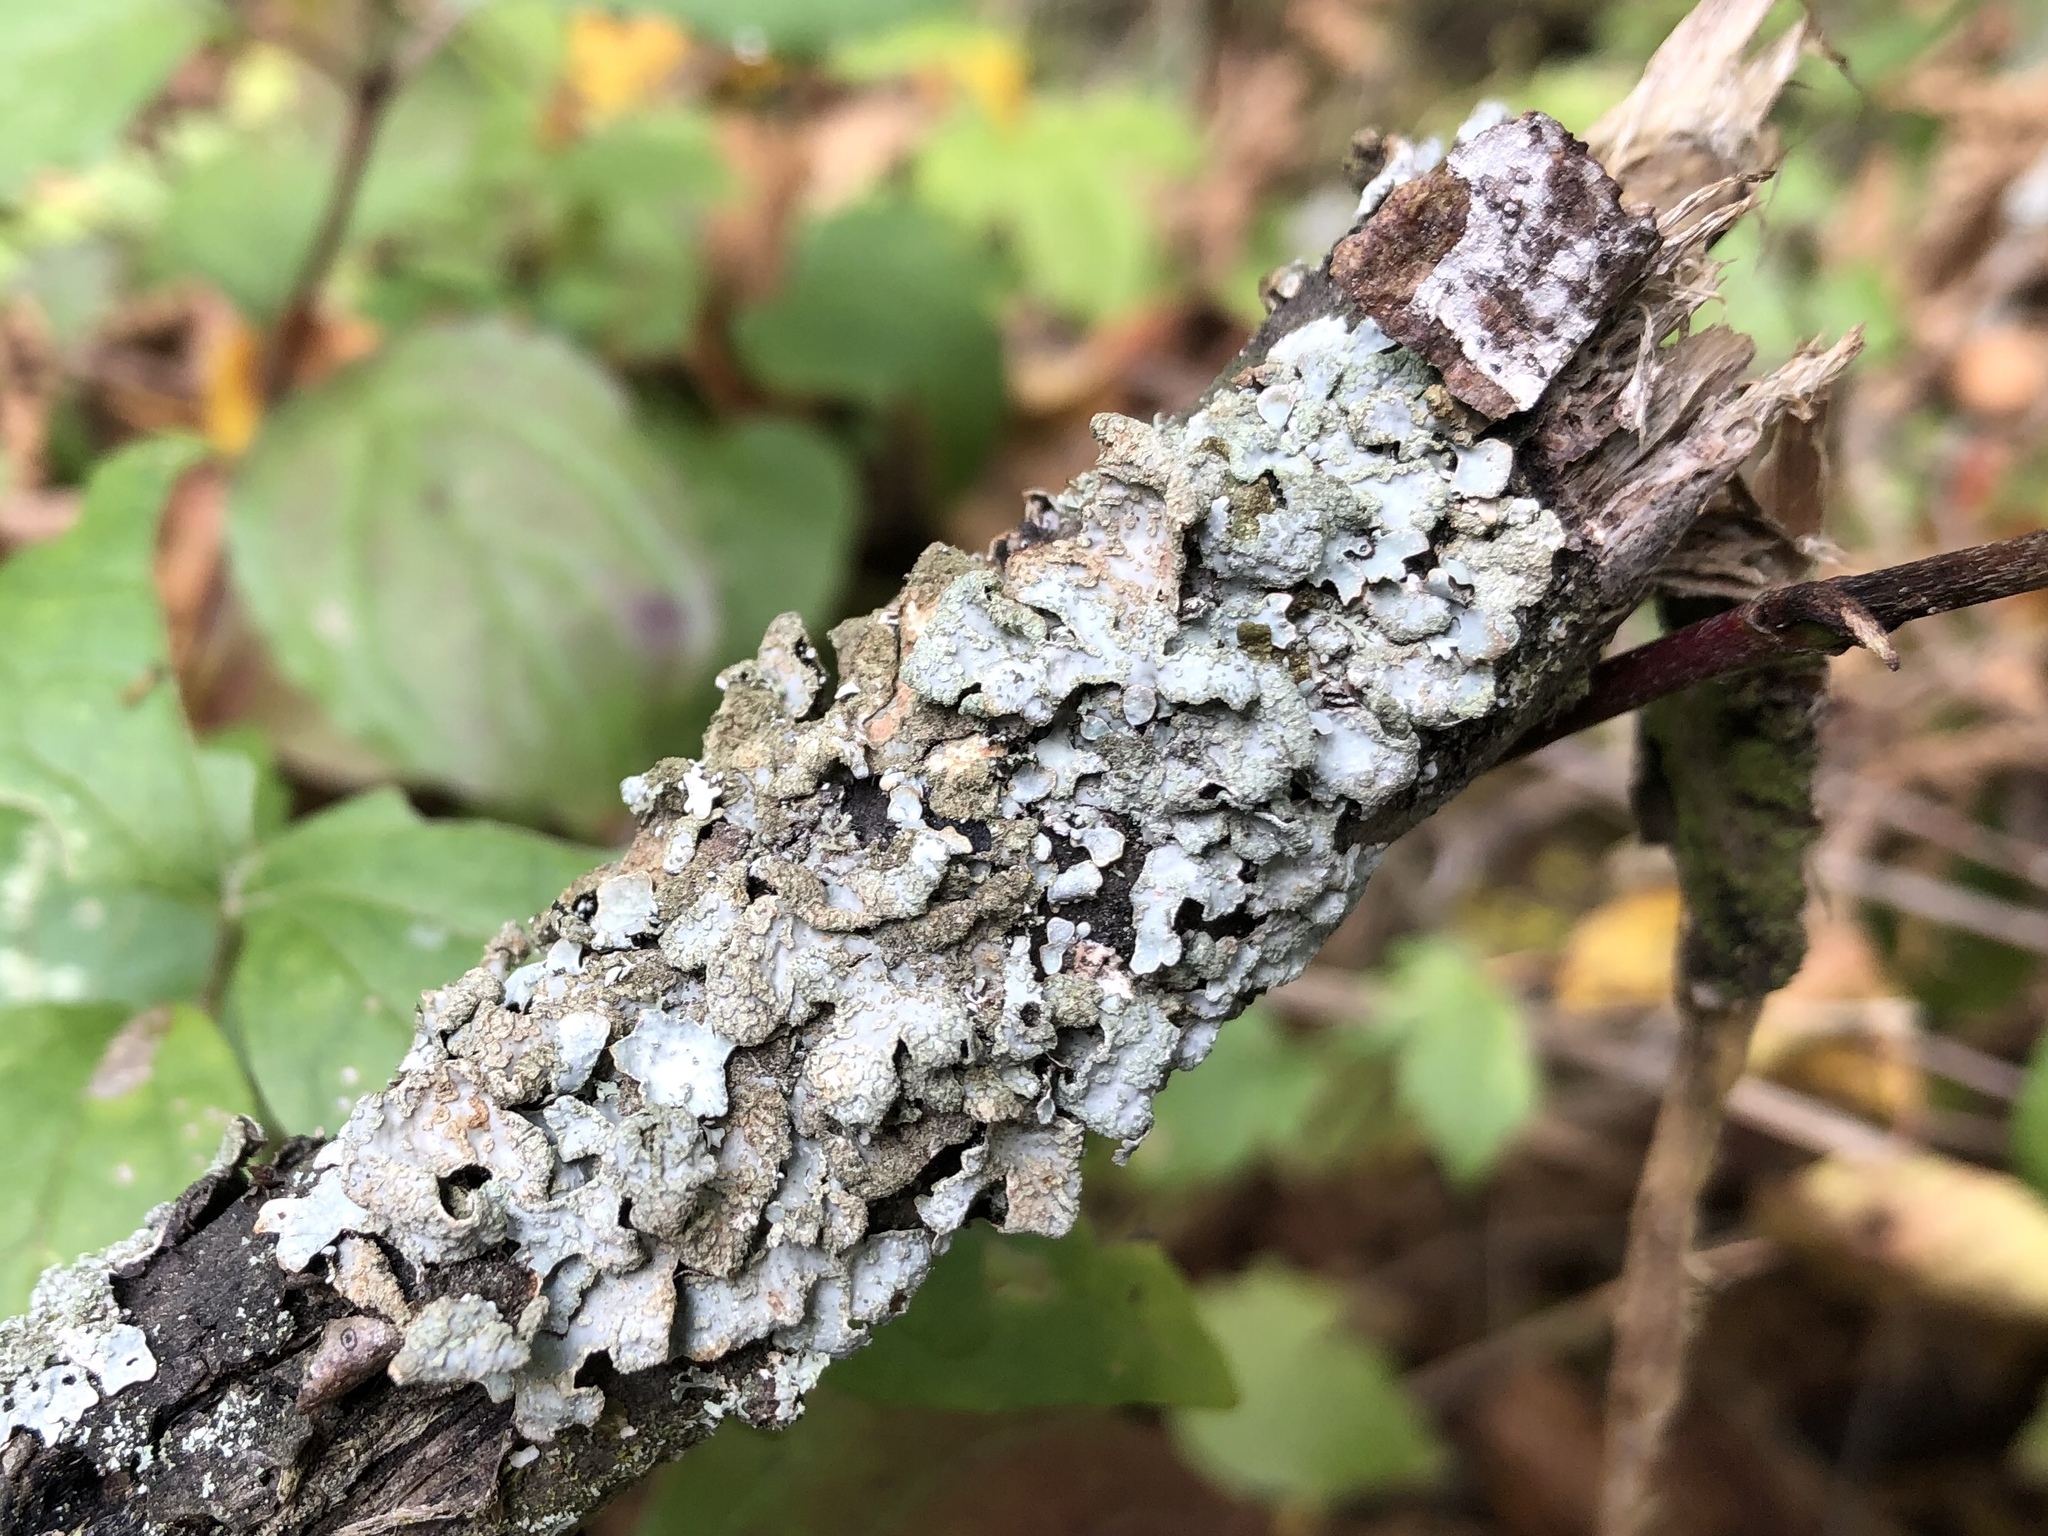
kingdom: Fungi
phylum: Ascomycota
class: Lecanoromycetes
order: Lecanorales
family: Parmeliaceae
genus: Parmelia
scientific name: Parmelia sulcata
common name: Netted shield lichen
